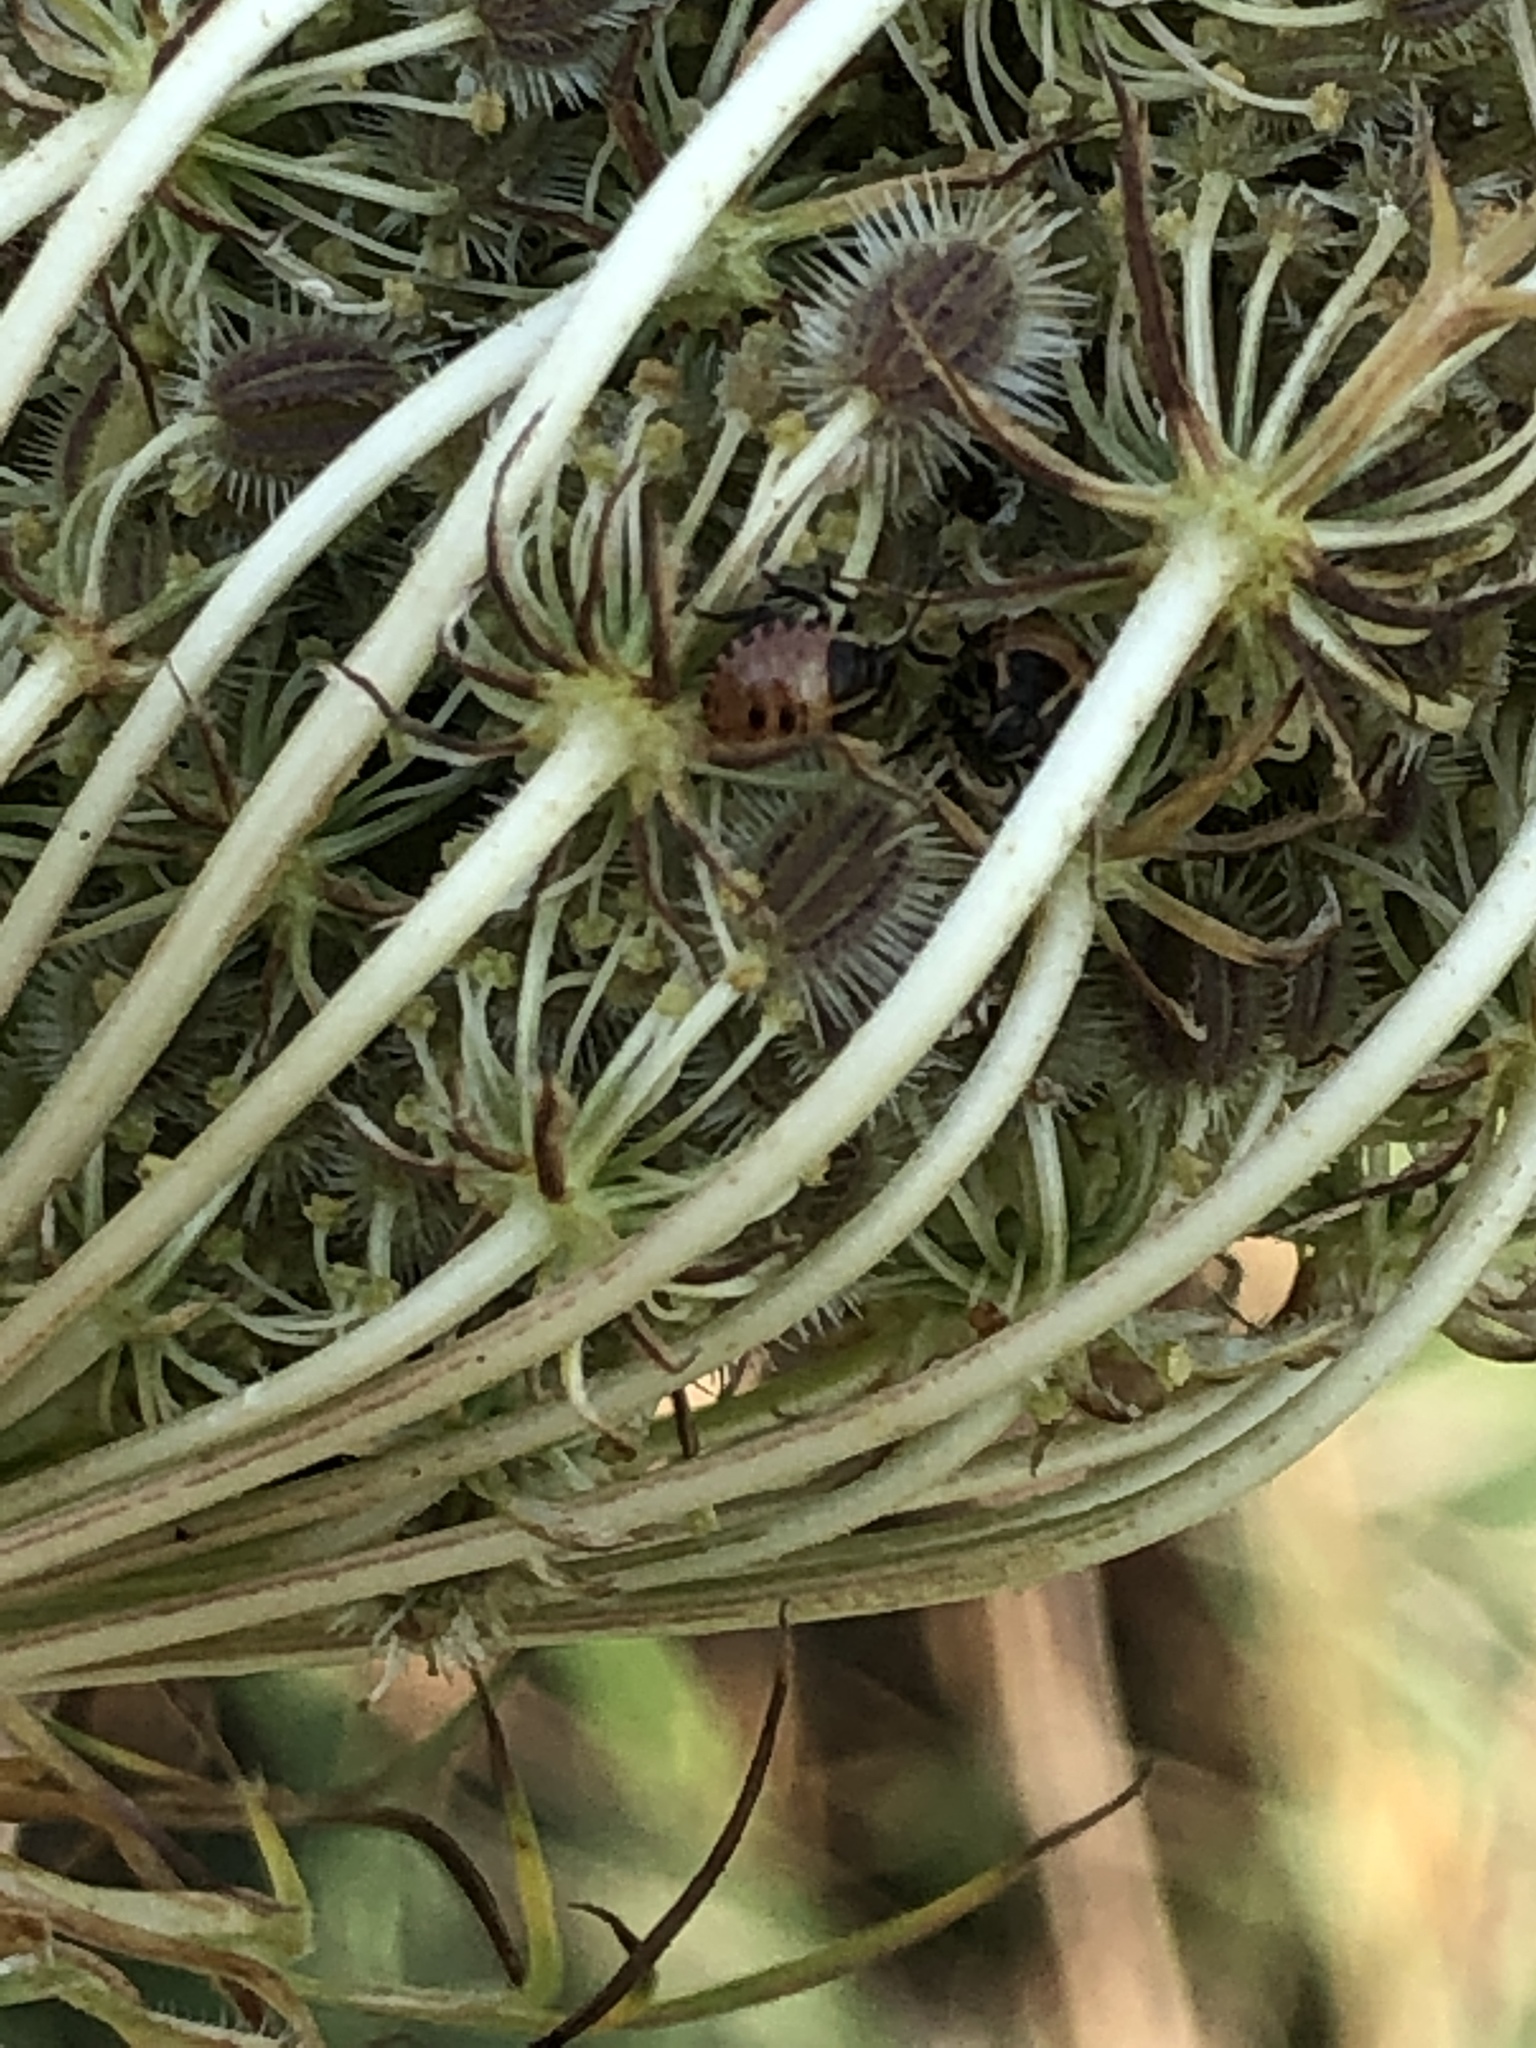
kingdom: Animalia
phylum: Arthropoda
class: Insecta
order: Hemiptera
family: Pentatomidae
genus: Graphosoma
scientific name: Graphosoma italicum
